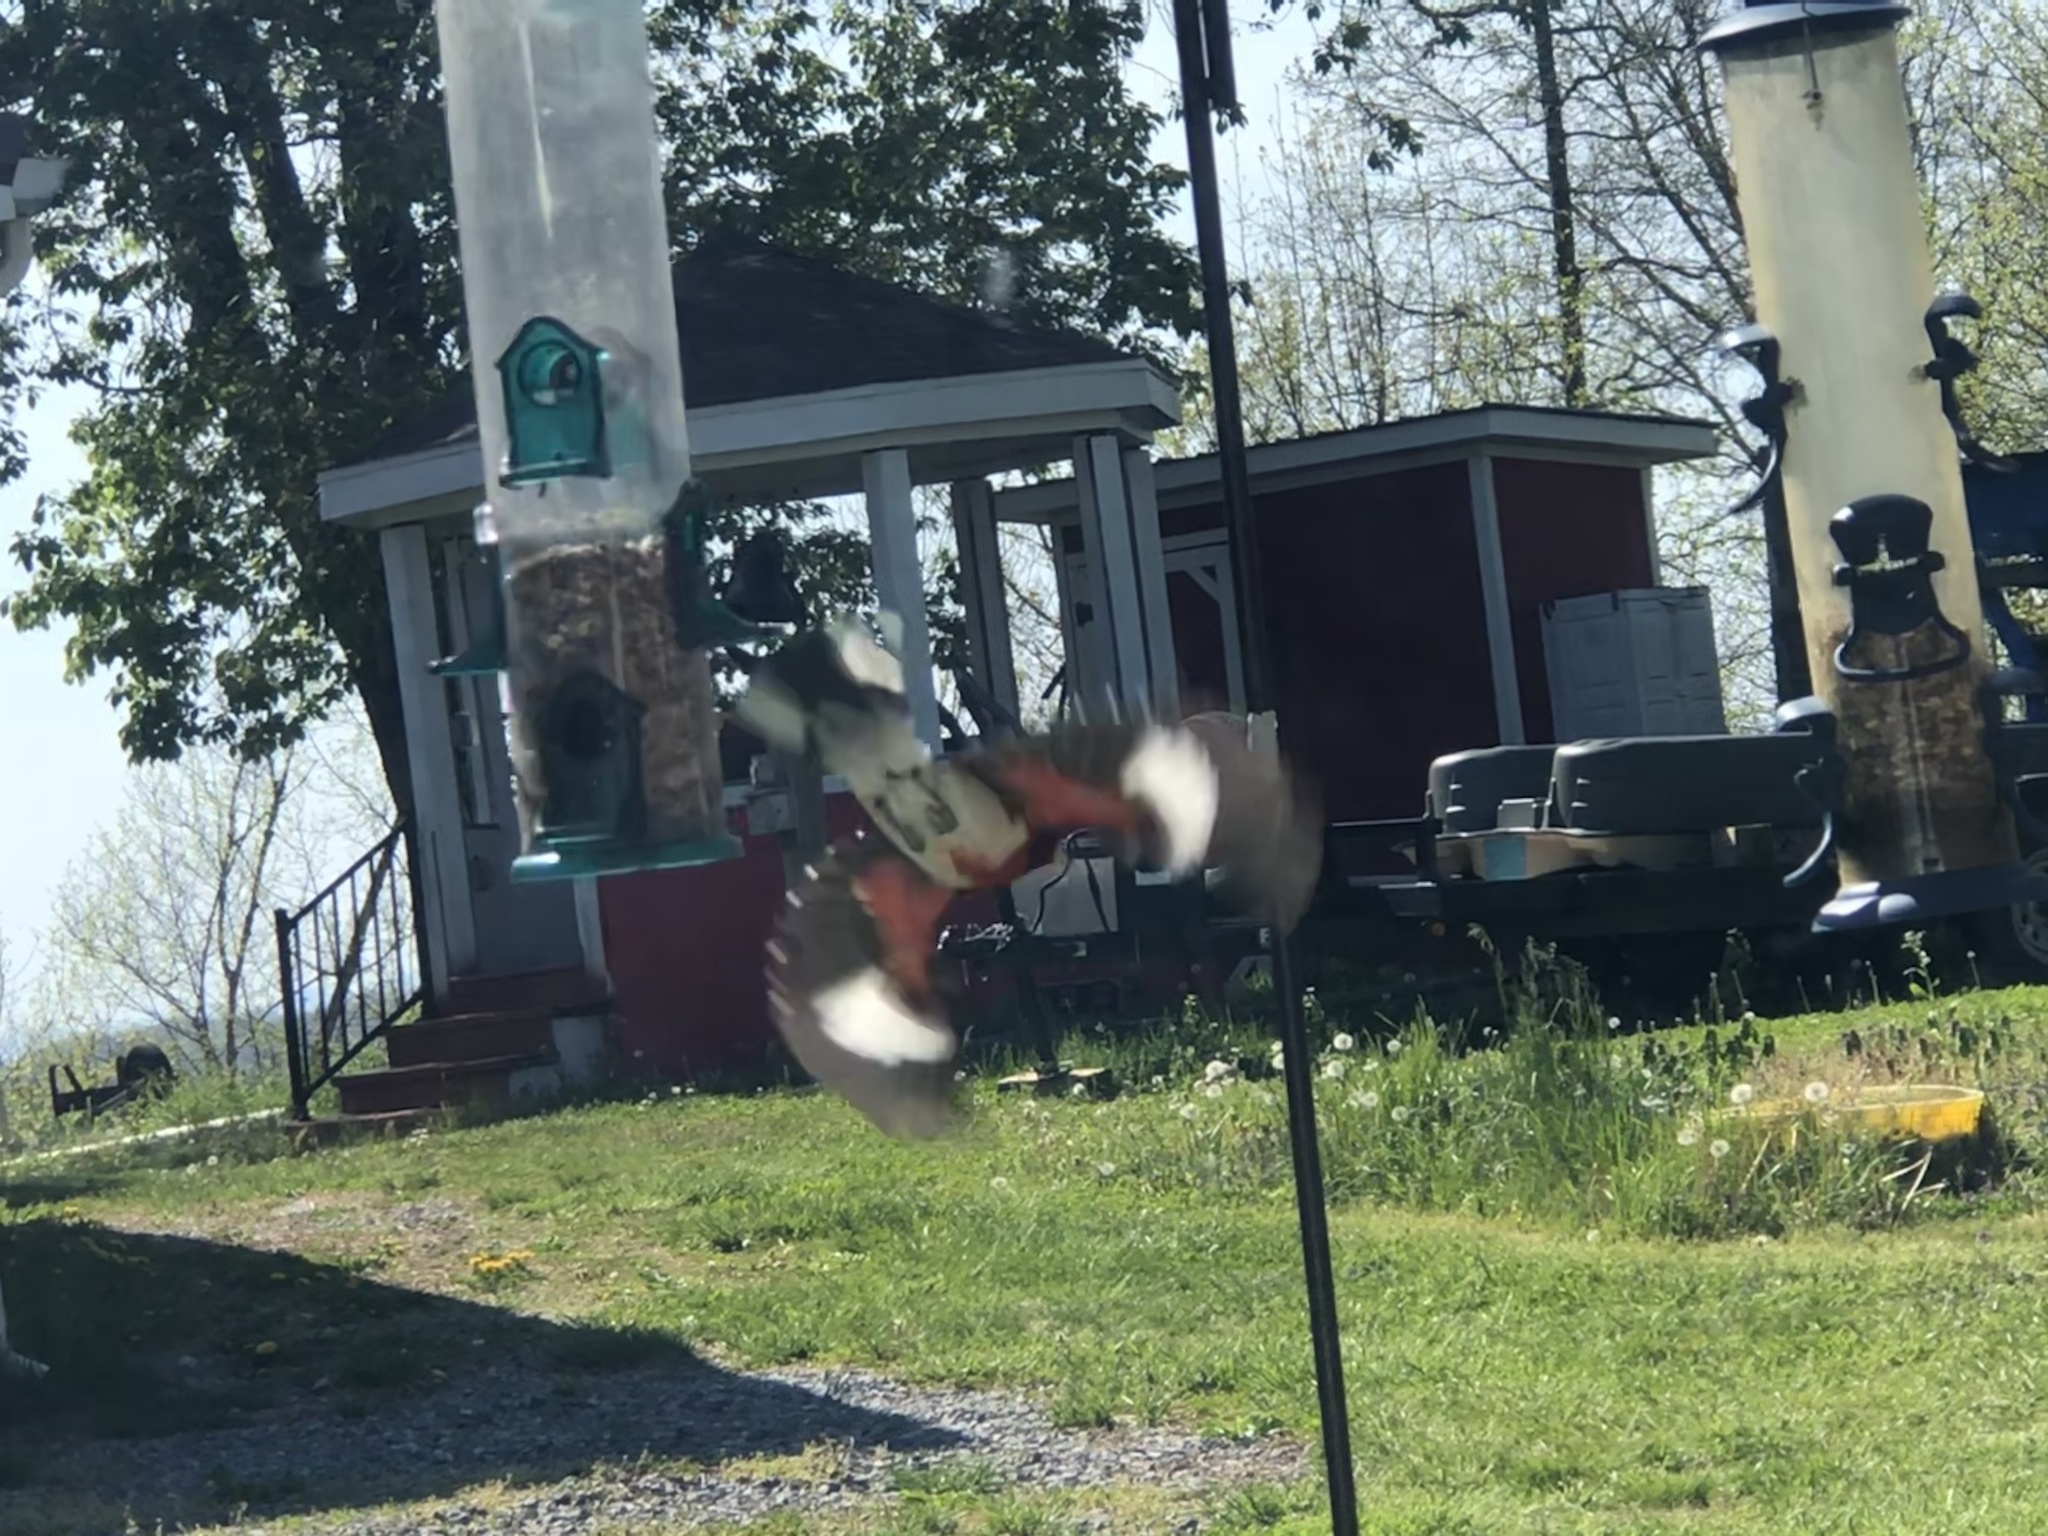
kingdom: Animalia
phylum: Chordata
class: Aves
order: Passeriformes
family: Cardinalidae
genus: Pheucticus
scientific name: Pheucticus ludovicianus
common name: Rose-breasted grosbeak
